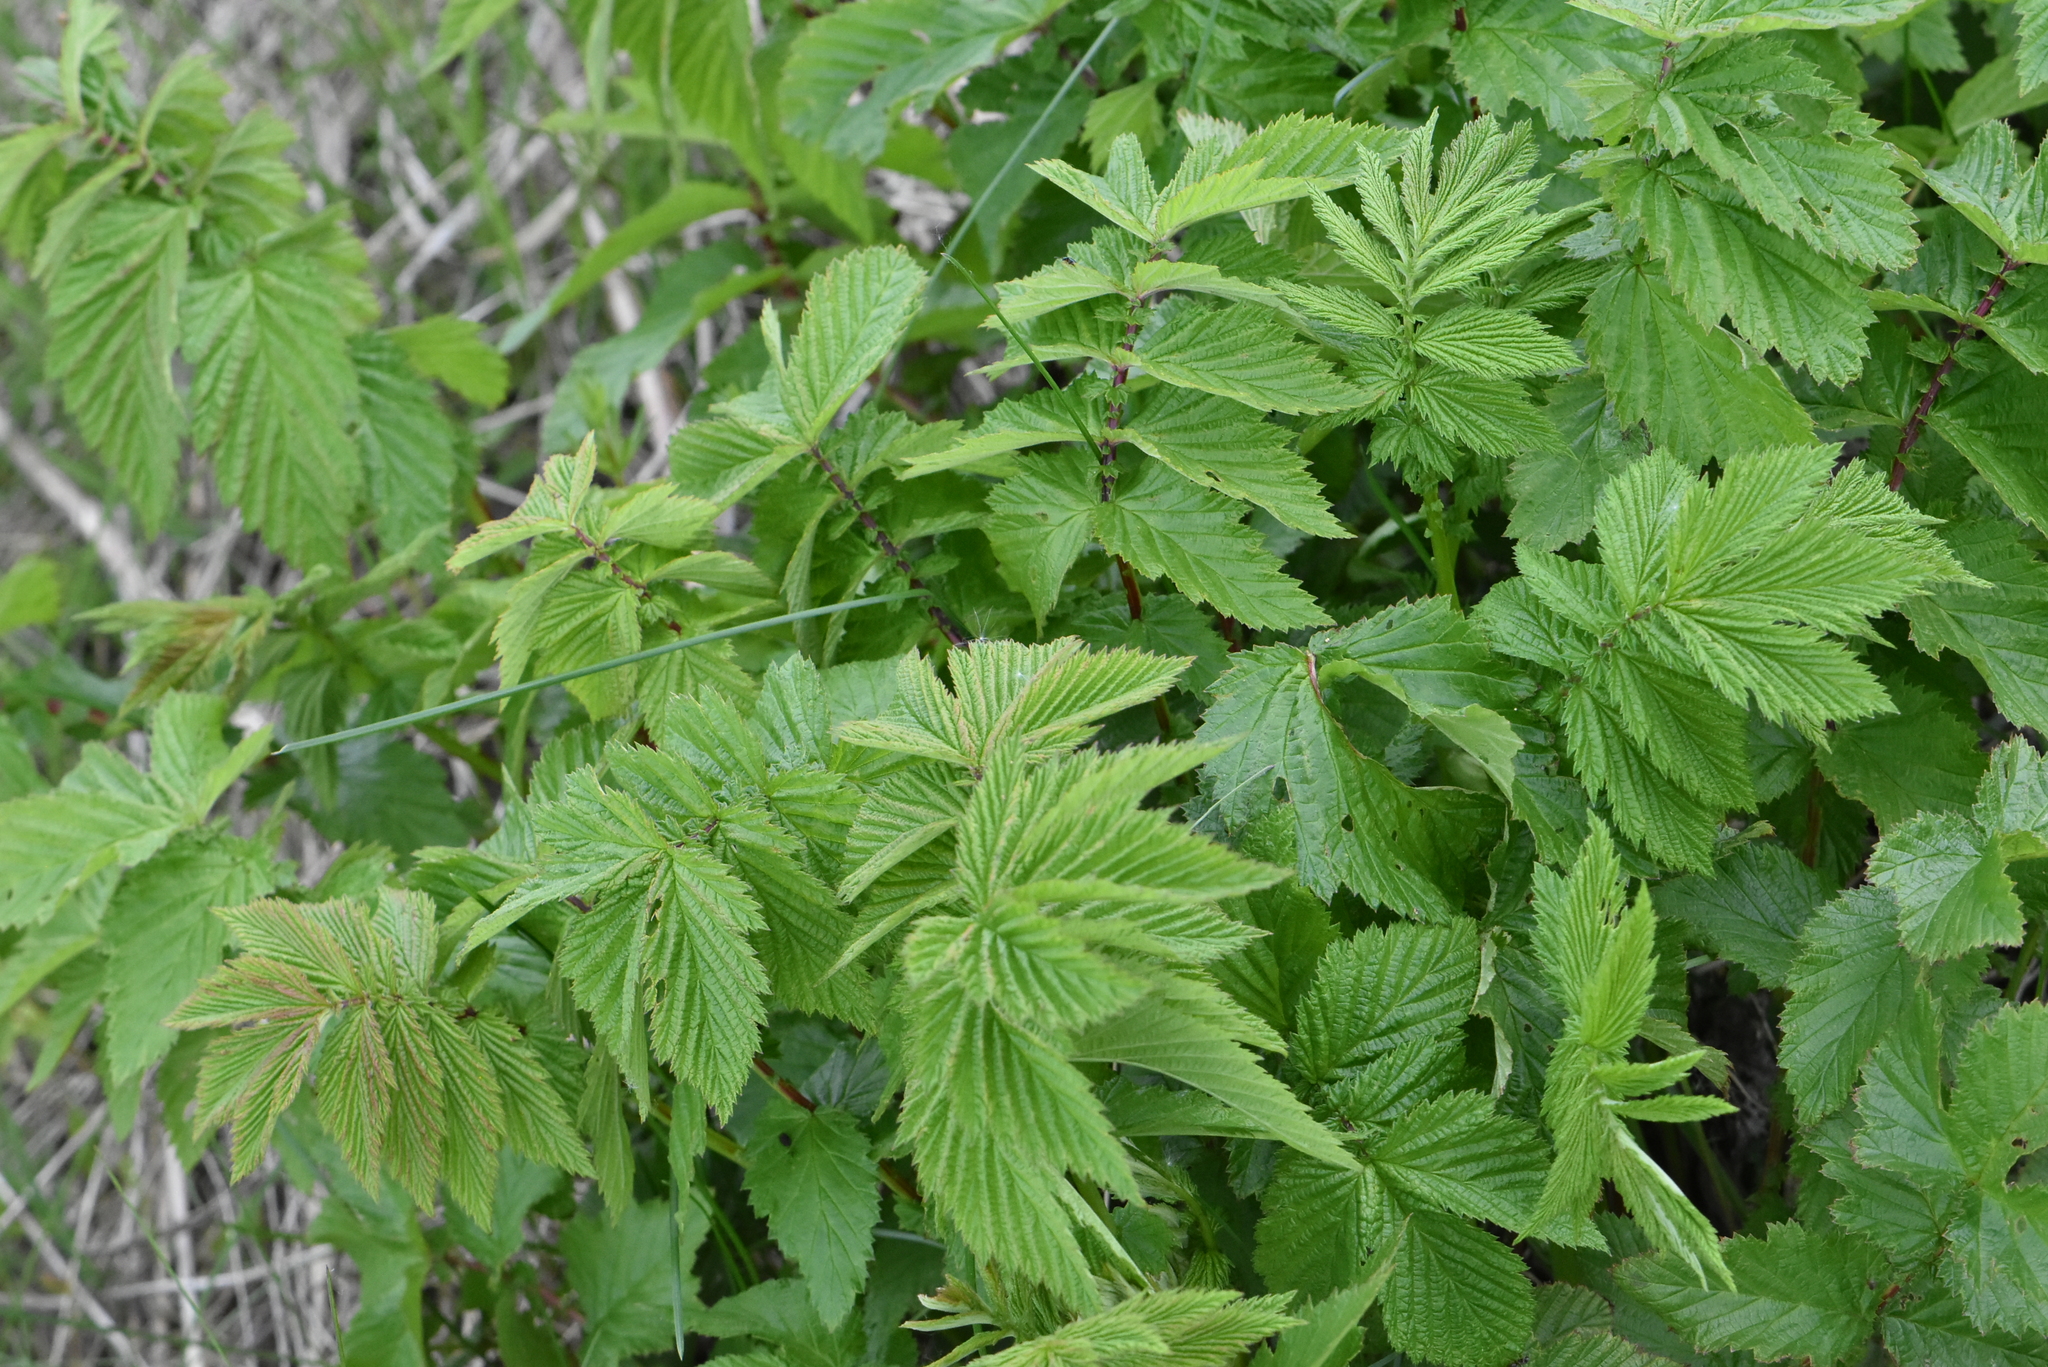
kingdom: Plantae
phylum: Tracheophyta
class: Magnoliopsida
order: Rosales
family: Rosaceae
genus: Filipendula
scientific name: Filipendula ulmaria
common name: Meadowsweet
